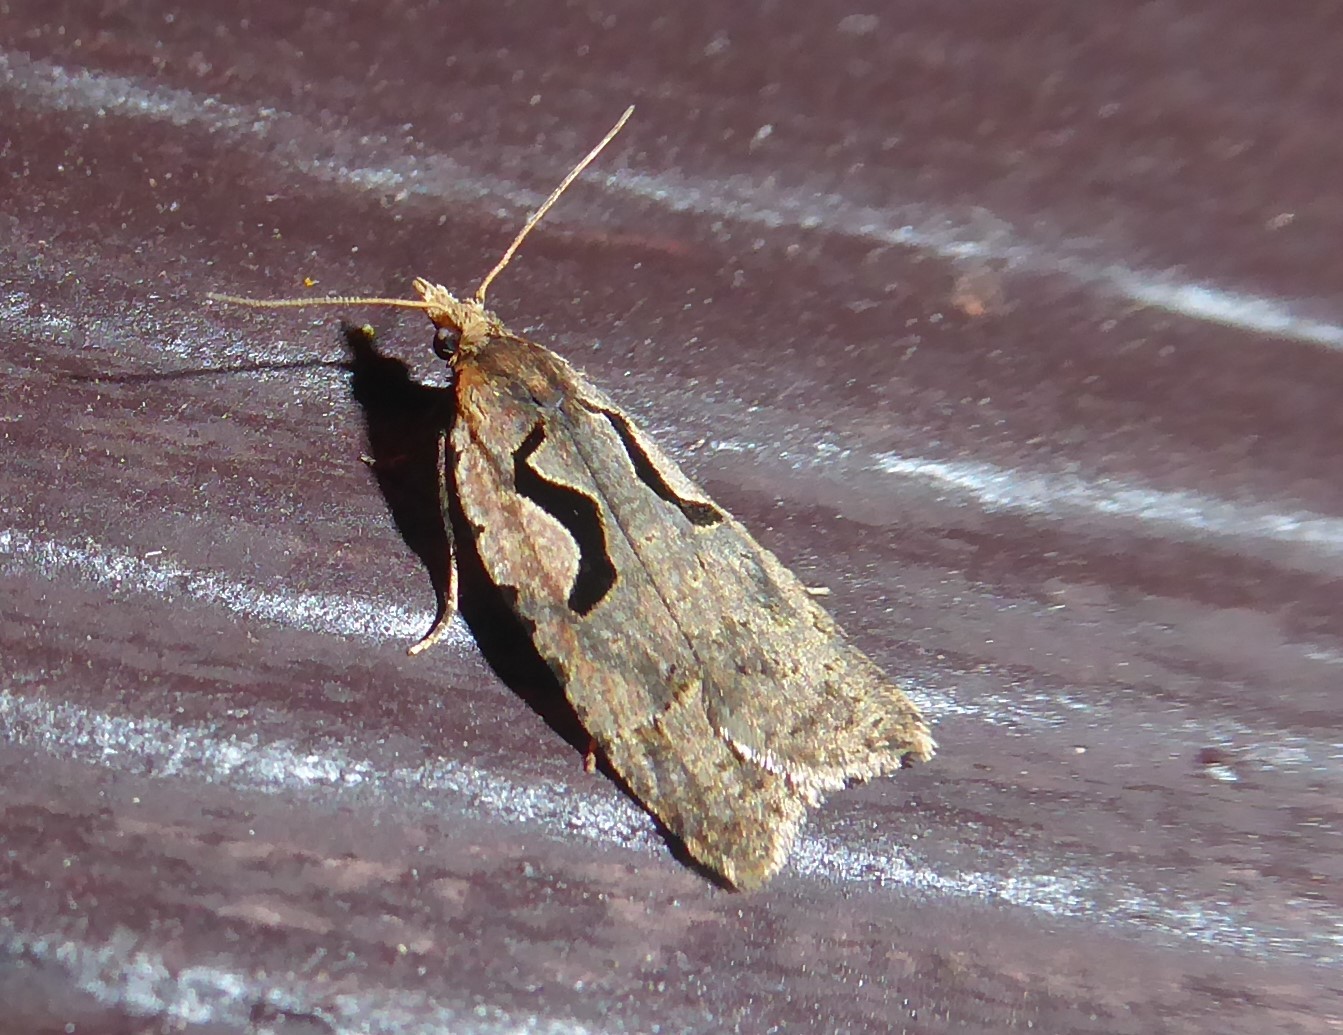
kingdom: Animalia
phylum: Arthropoda
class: Insecta
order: Lepidoptera
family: Tortricidae
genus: Cnephasia
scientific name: Cnephasia jactatana
